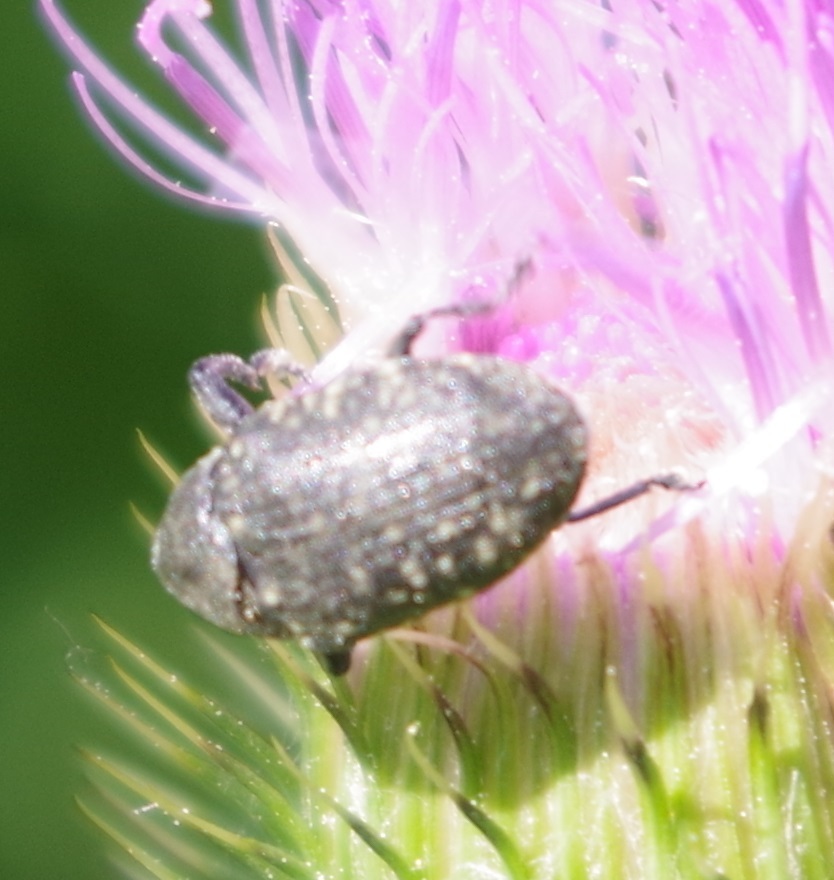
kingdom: Animalia
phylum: Arthropoda
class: Insecta
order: Coleoptera
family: Curculionidae
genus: Larinus
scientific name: Larinus turbinatus
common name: Weevil
